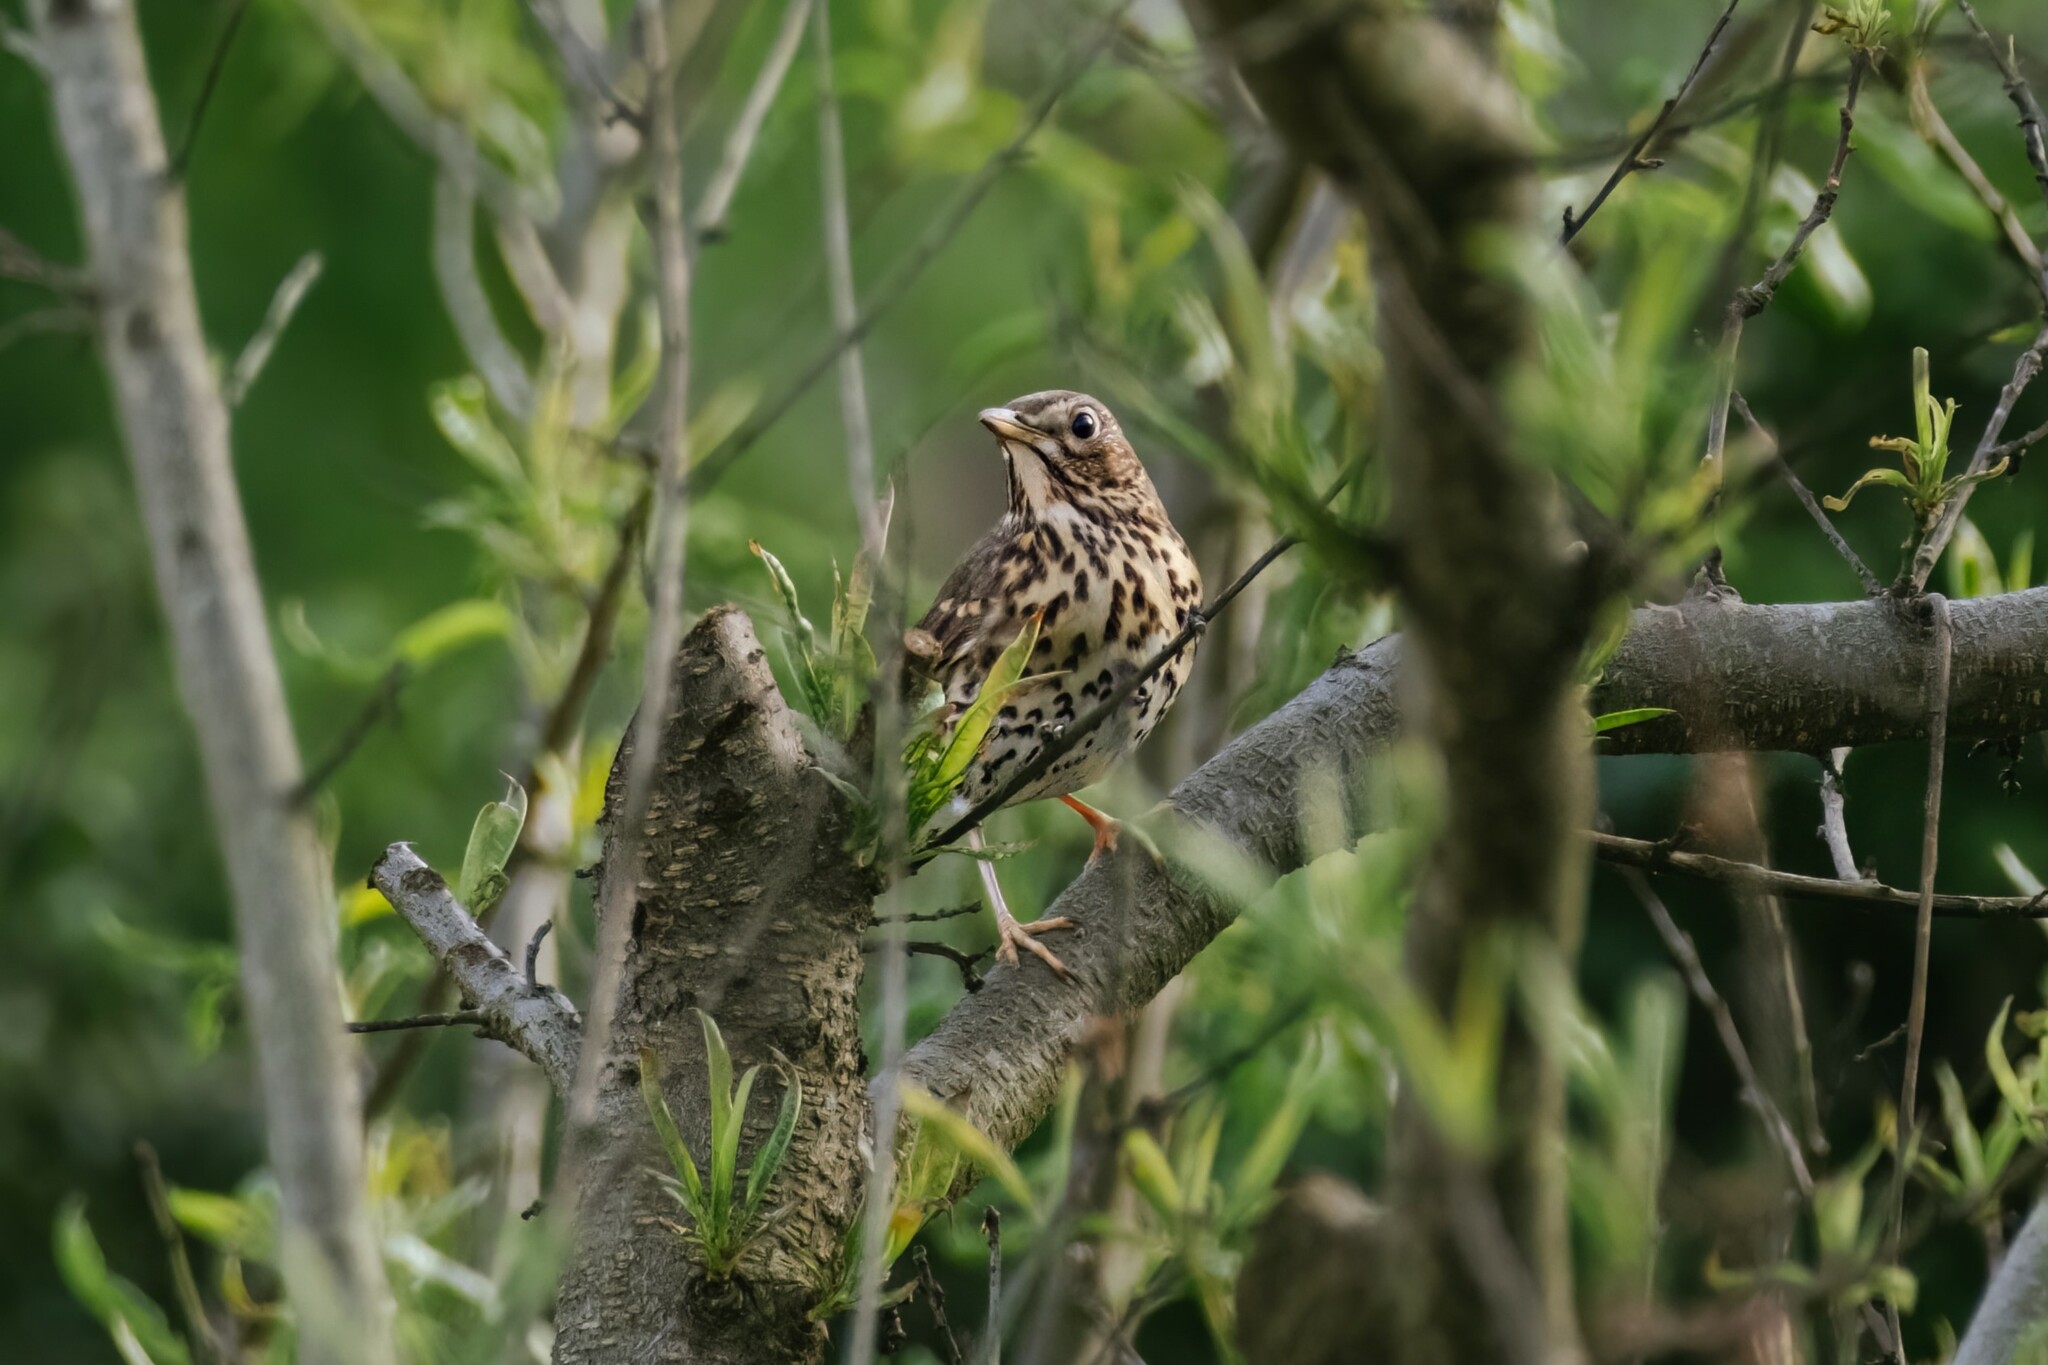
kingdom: Animalia
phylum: Chordata
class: Aves
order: Passeriformes
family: Turdidae
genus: Turdus
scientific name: Turdus philomelos
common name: Song thrush
